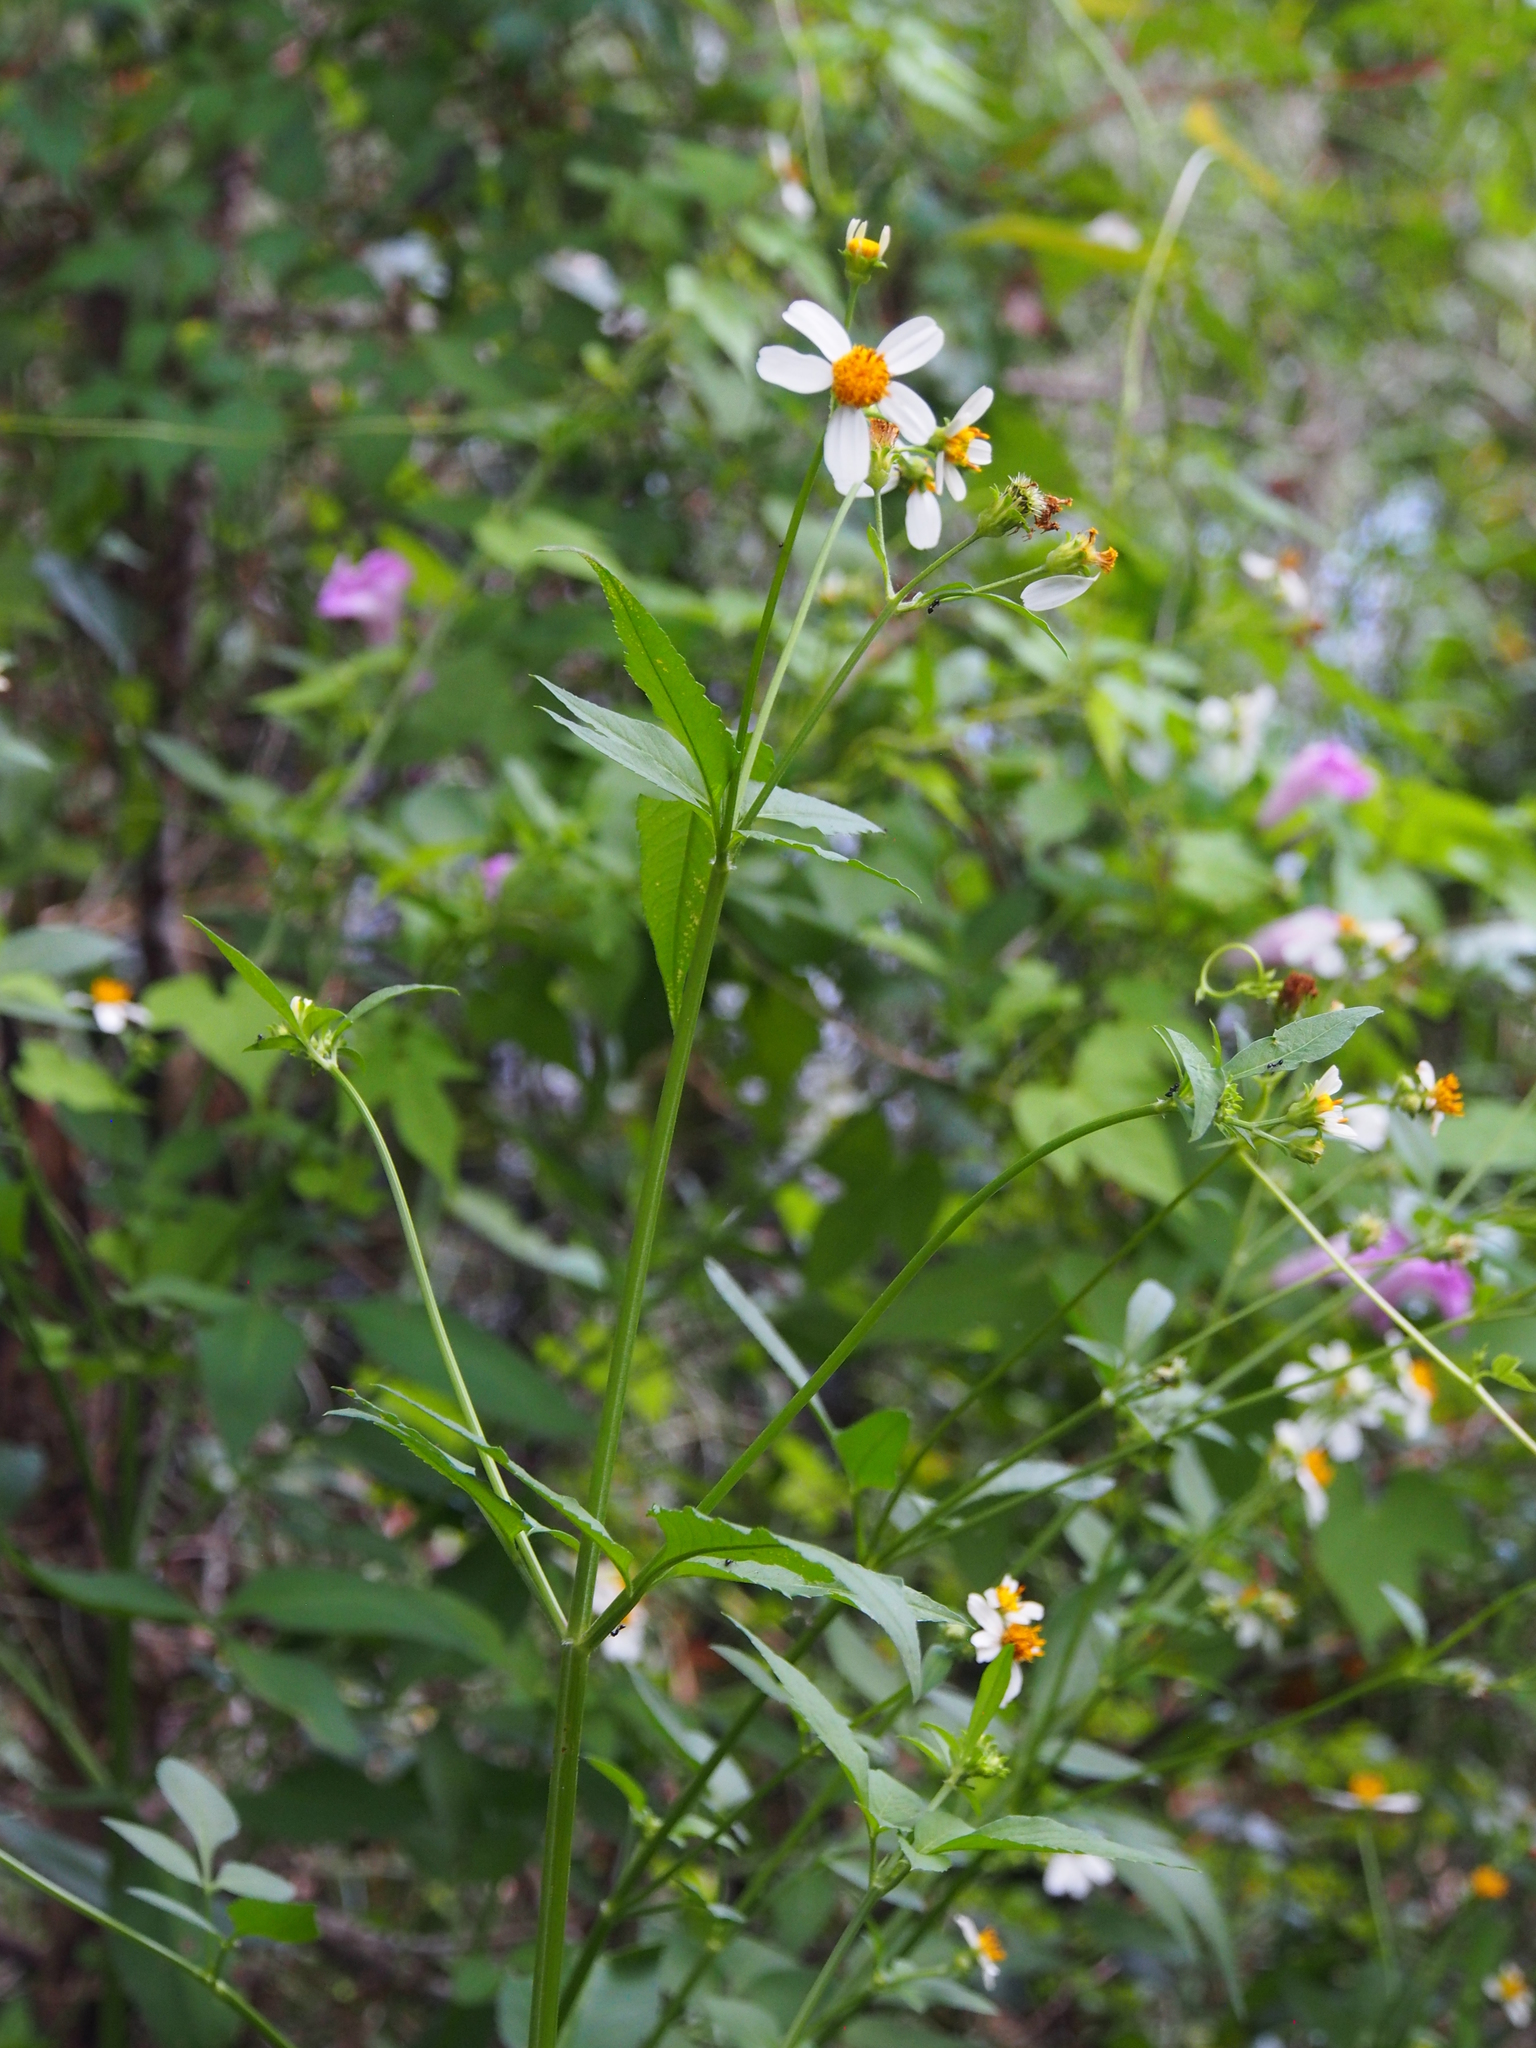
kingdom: Plantae
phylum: Tracheophyta
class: Magnoliopsida
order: Asterales
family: Asteraceae
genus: Bidens
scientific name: Bidens alba
